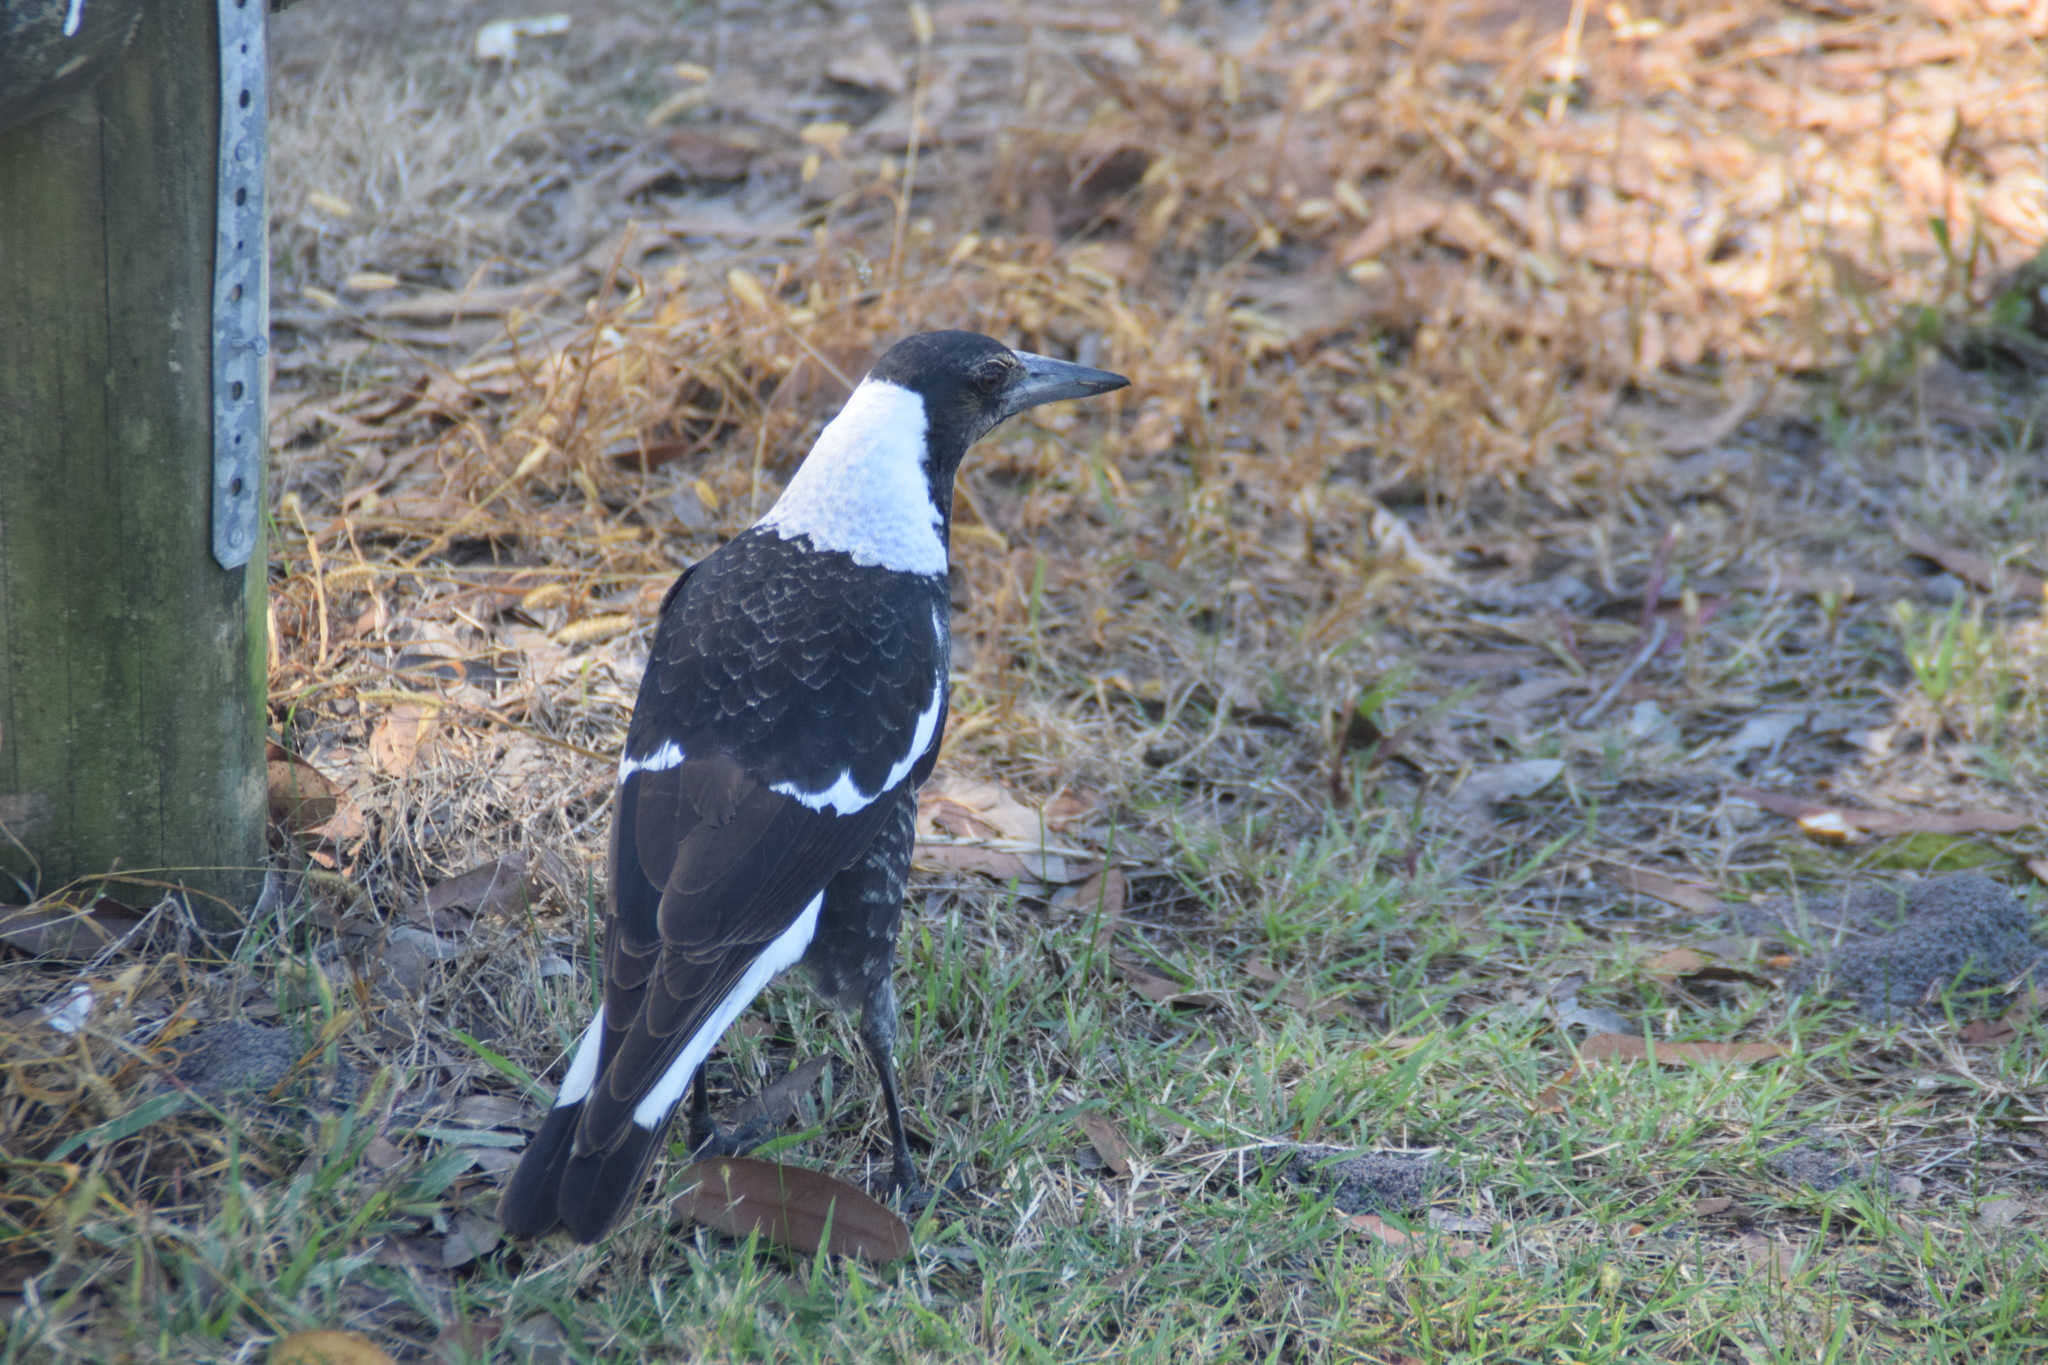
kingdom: Animalia
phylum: Chordata
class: Aves
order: Passeriformes
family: Cracticidae
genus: Gymnorhina
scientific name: Gymnorhina tibicen
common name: Australian magpie
